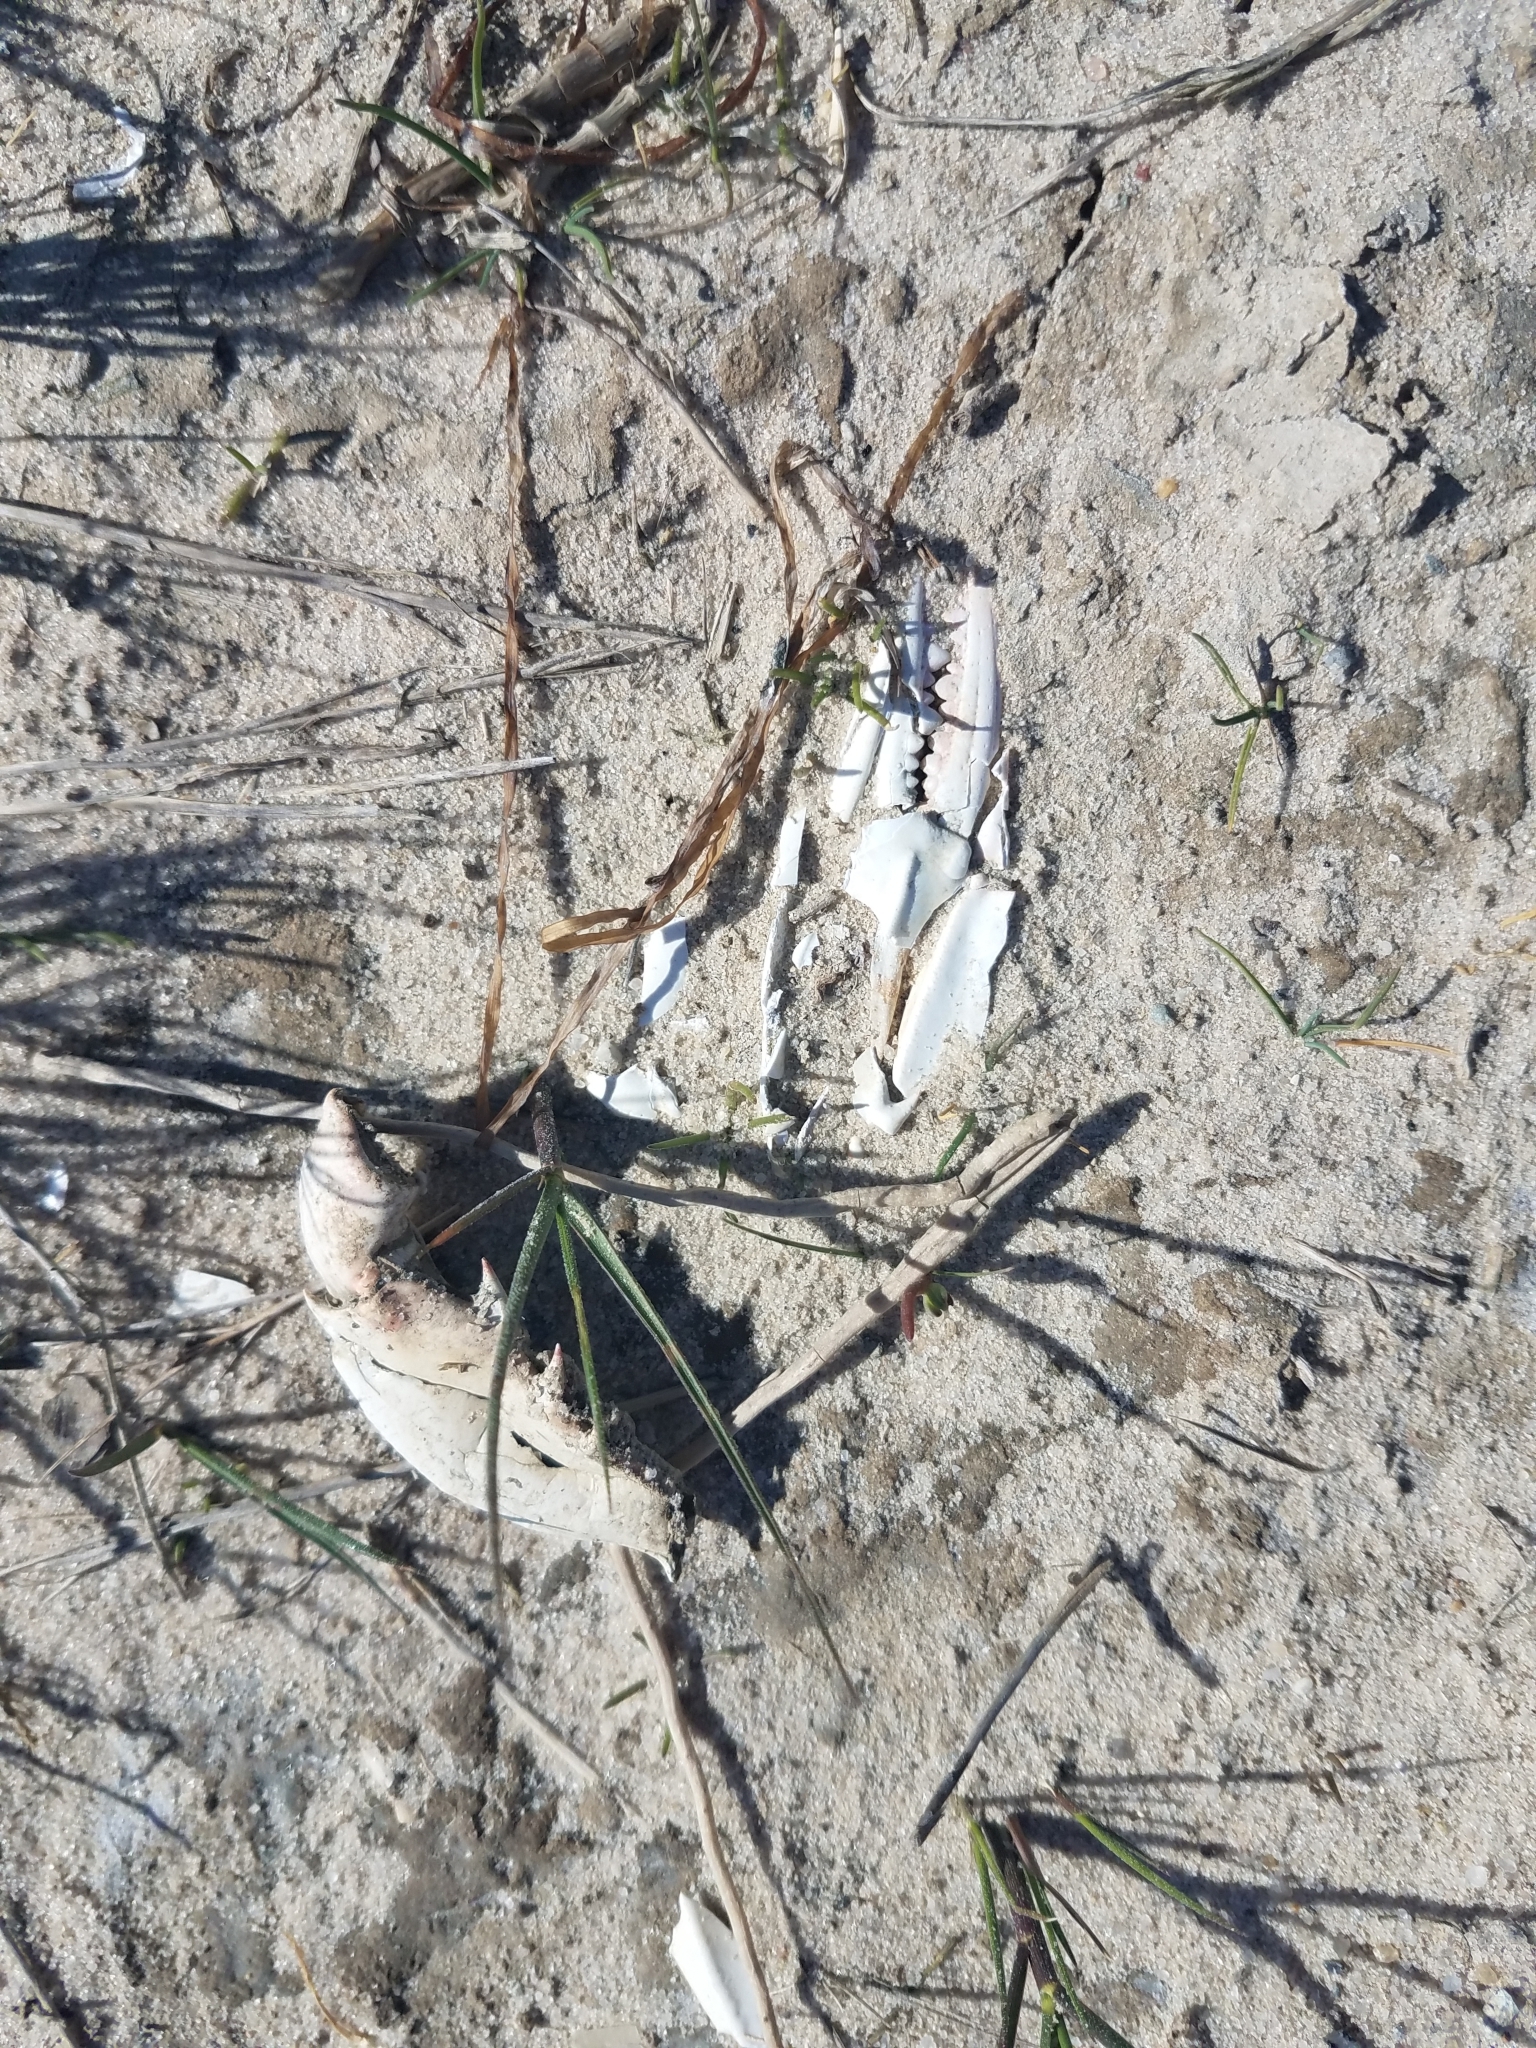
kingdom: Animalia
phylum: Arthropoda
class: Malacostraca
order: Decapoda
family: Portunidae
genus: Callinectes
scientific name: Callinectes sapidus
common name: Blue crab
